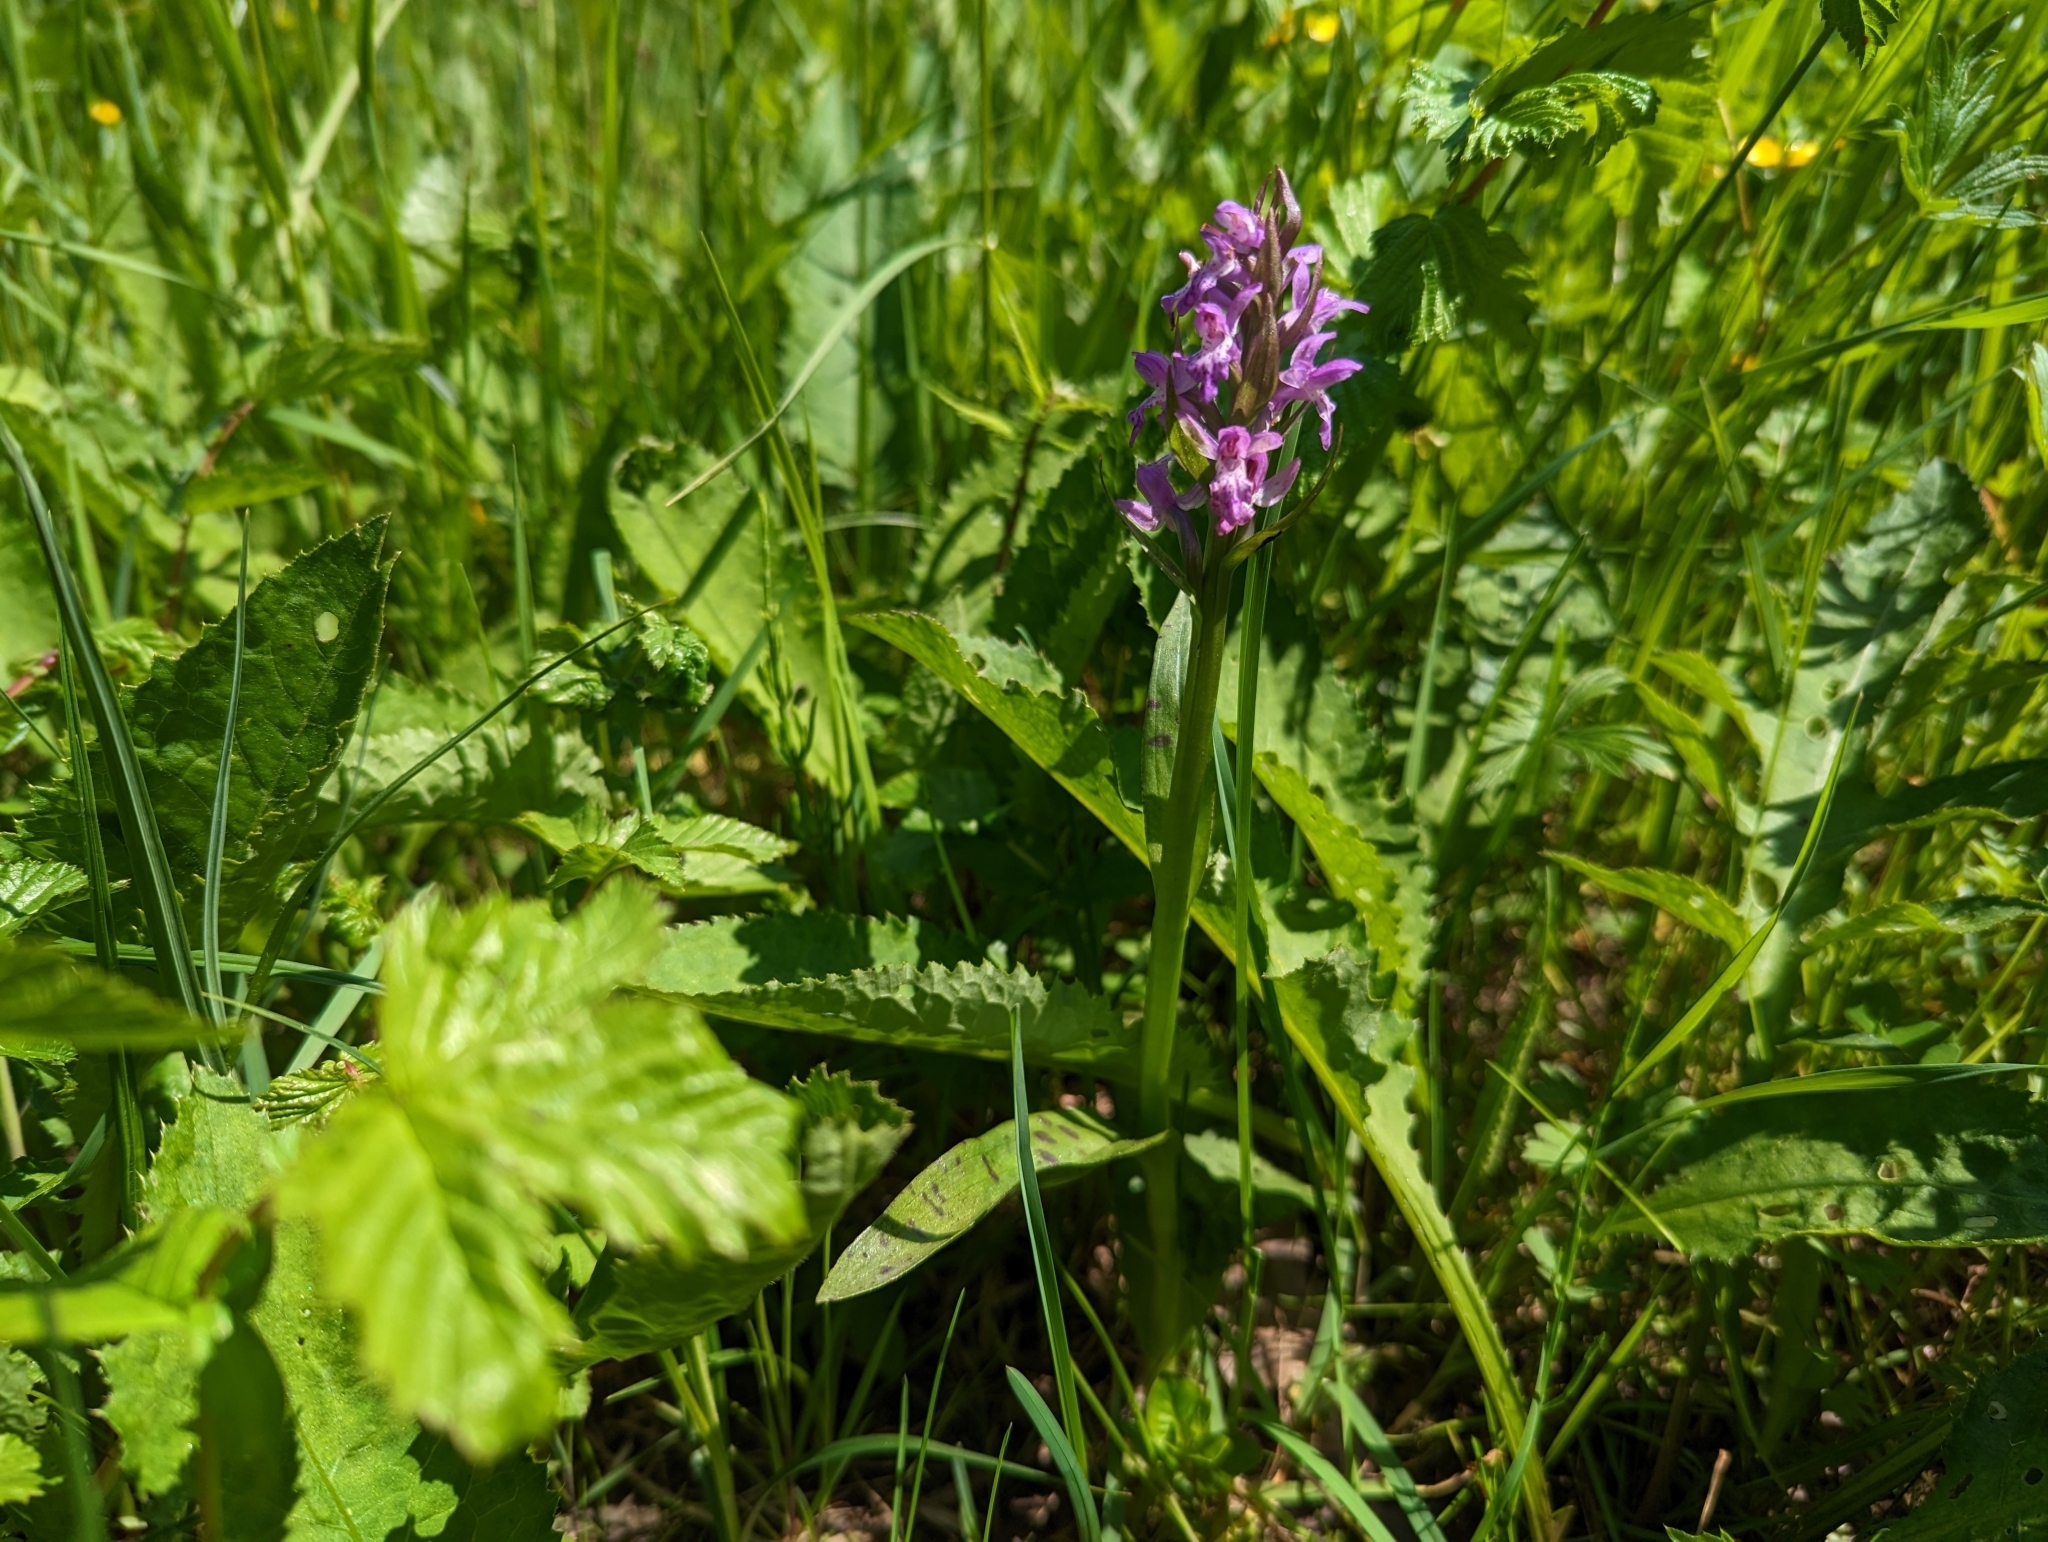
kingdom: Plantae
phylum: Tracheophyta
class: Liliopsida
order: Asparagales
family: Orchidaceae
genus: Dactylorhiza
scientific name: Dactylorhiza majalis
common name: Marsh orchid
